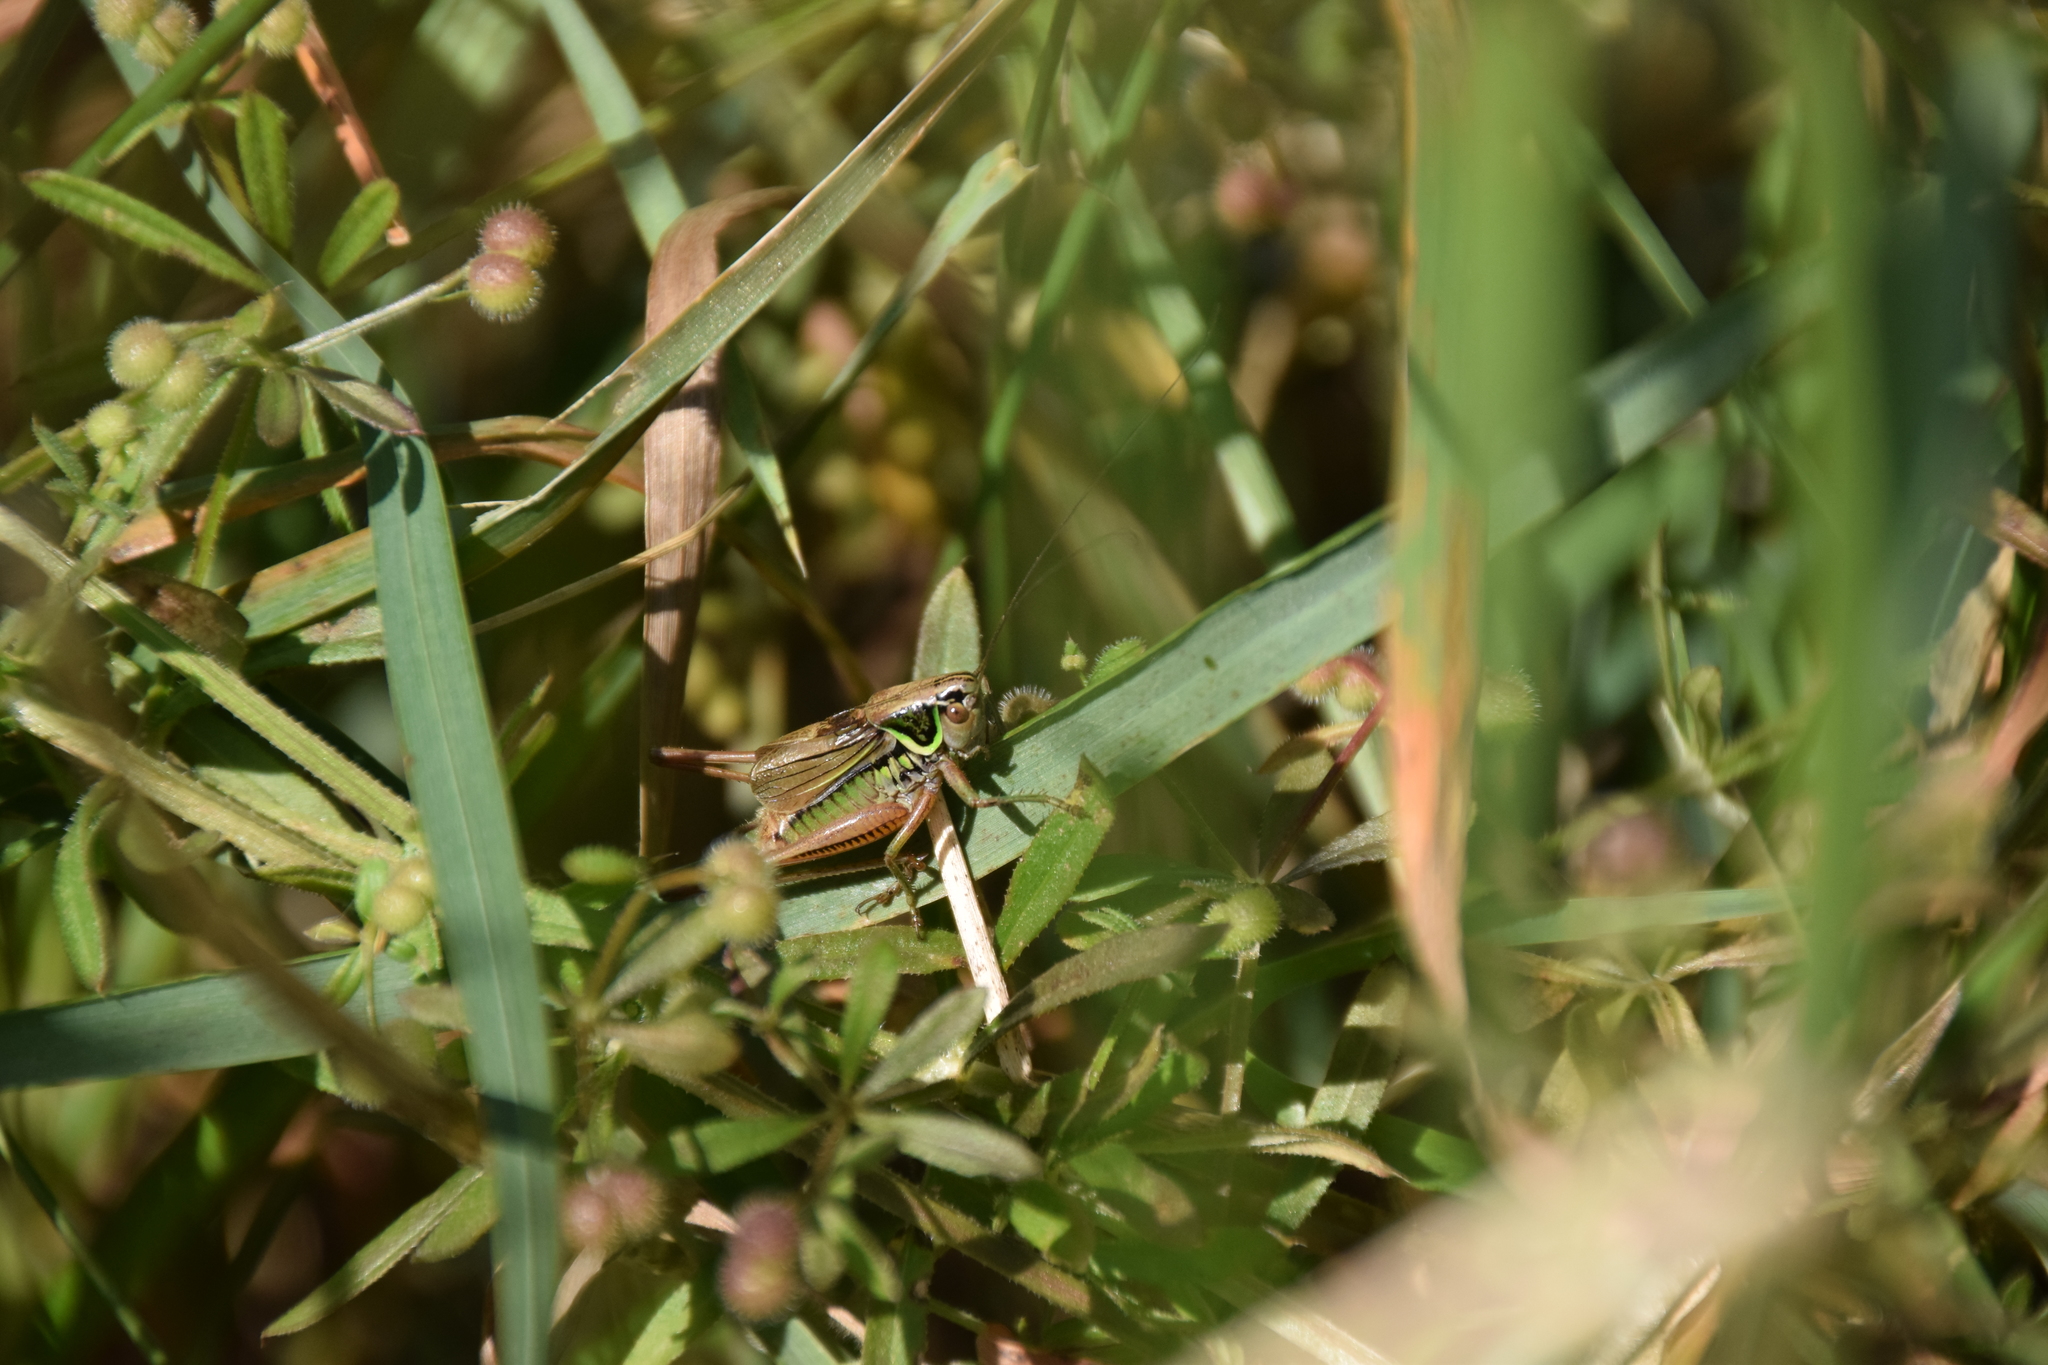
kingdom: Animalia
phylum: Arthropoda
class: Insecta
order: Orthoptera
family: Tettigoniidae
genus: Roeseliana
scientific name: Roeseliana roeselii
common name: Roesel's bush cricket
